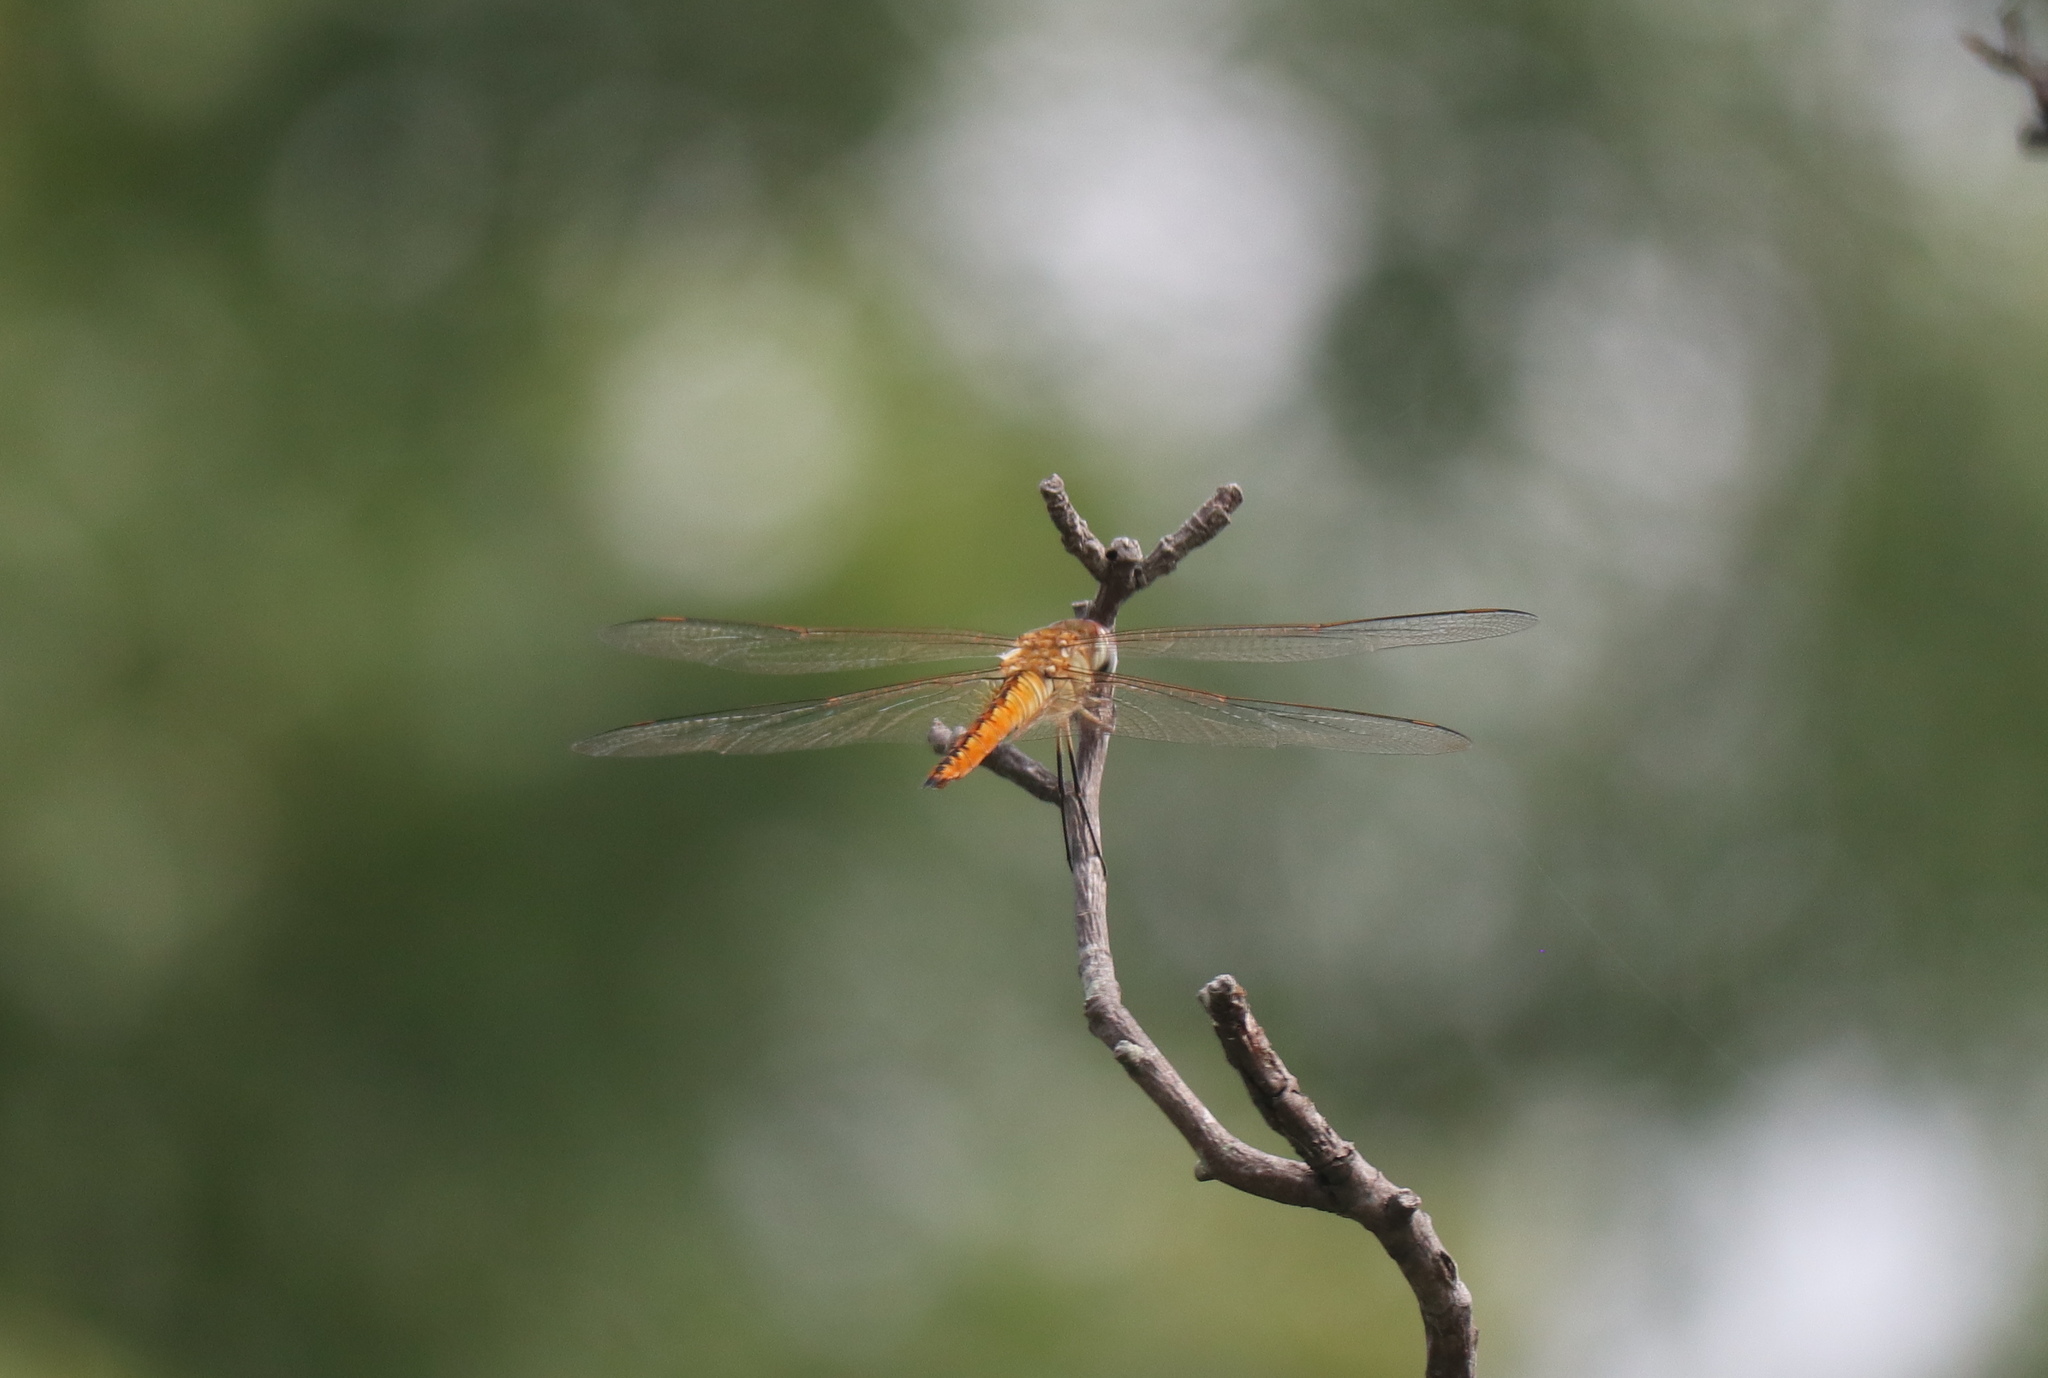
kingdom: Animalia
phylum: Arthropoda
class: Insecta
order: Odonata
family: Libellulidae
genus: Pantala
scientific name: Pantala flavescens
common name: Wandering glider
